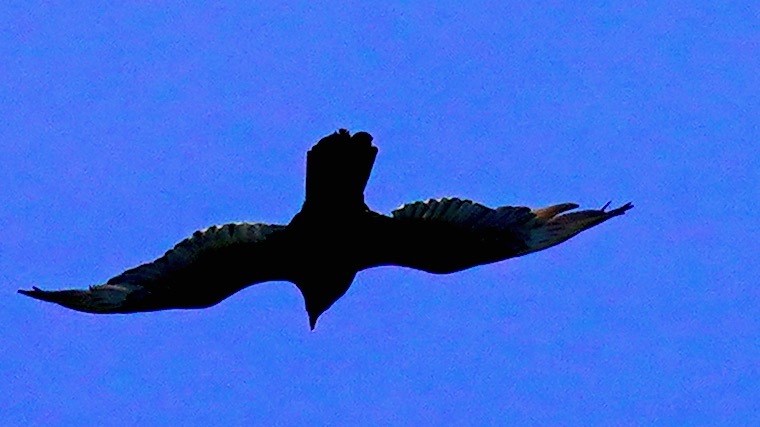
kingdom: Animalia
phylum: Chordata
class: Aves
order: Accipitriformes
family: Cathartidae
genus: Cathartes
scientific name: Cathartes aura
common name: Turkey vulture
